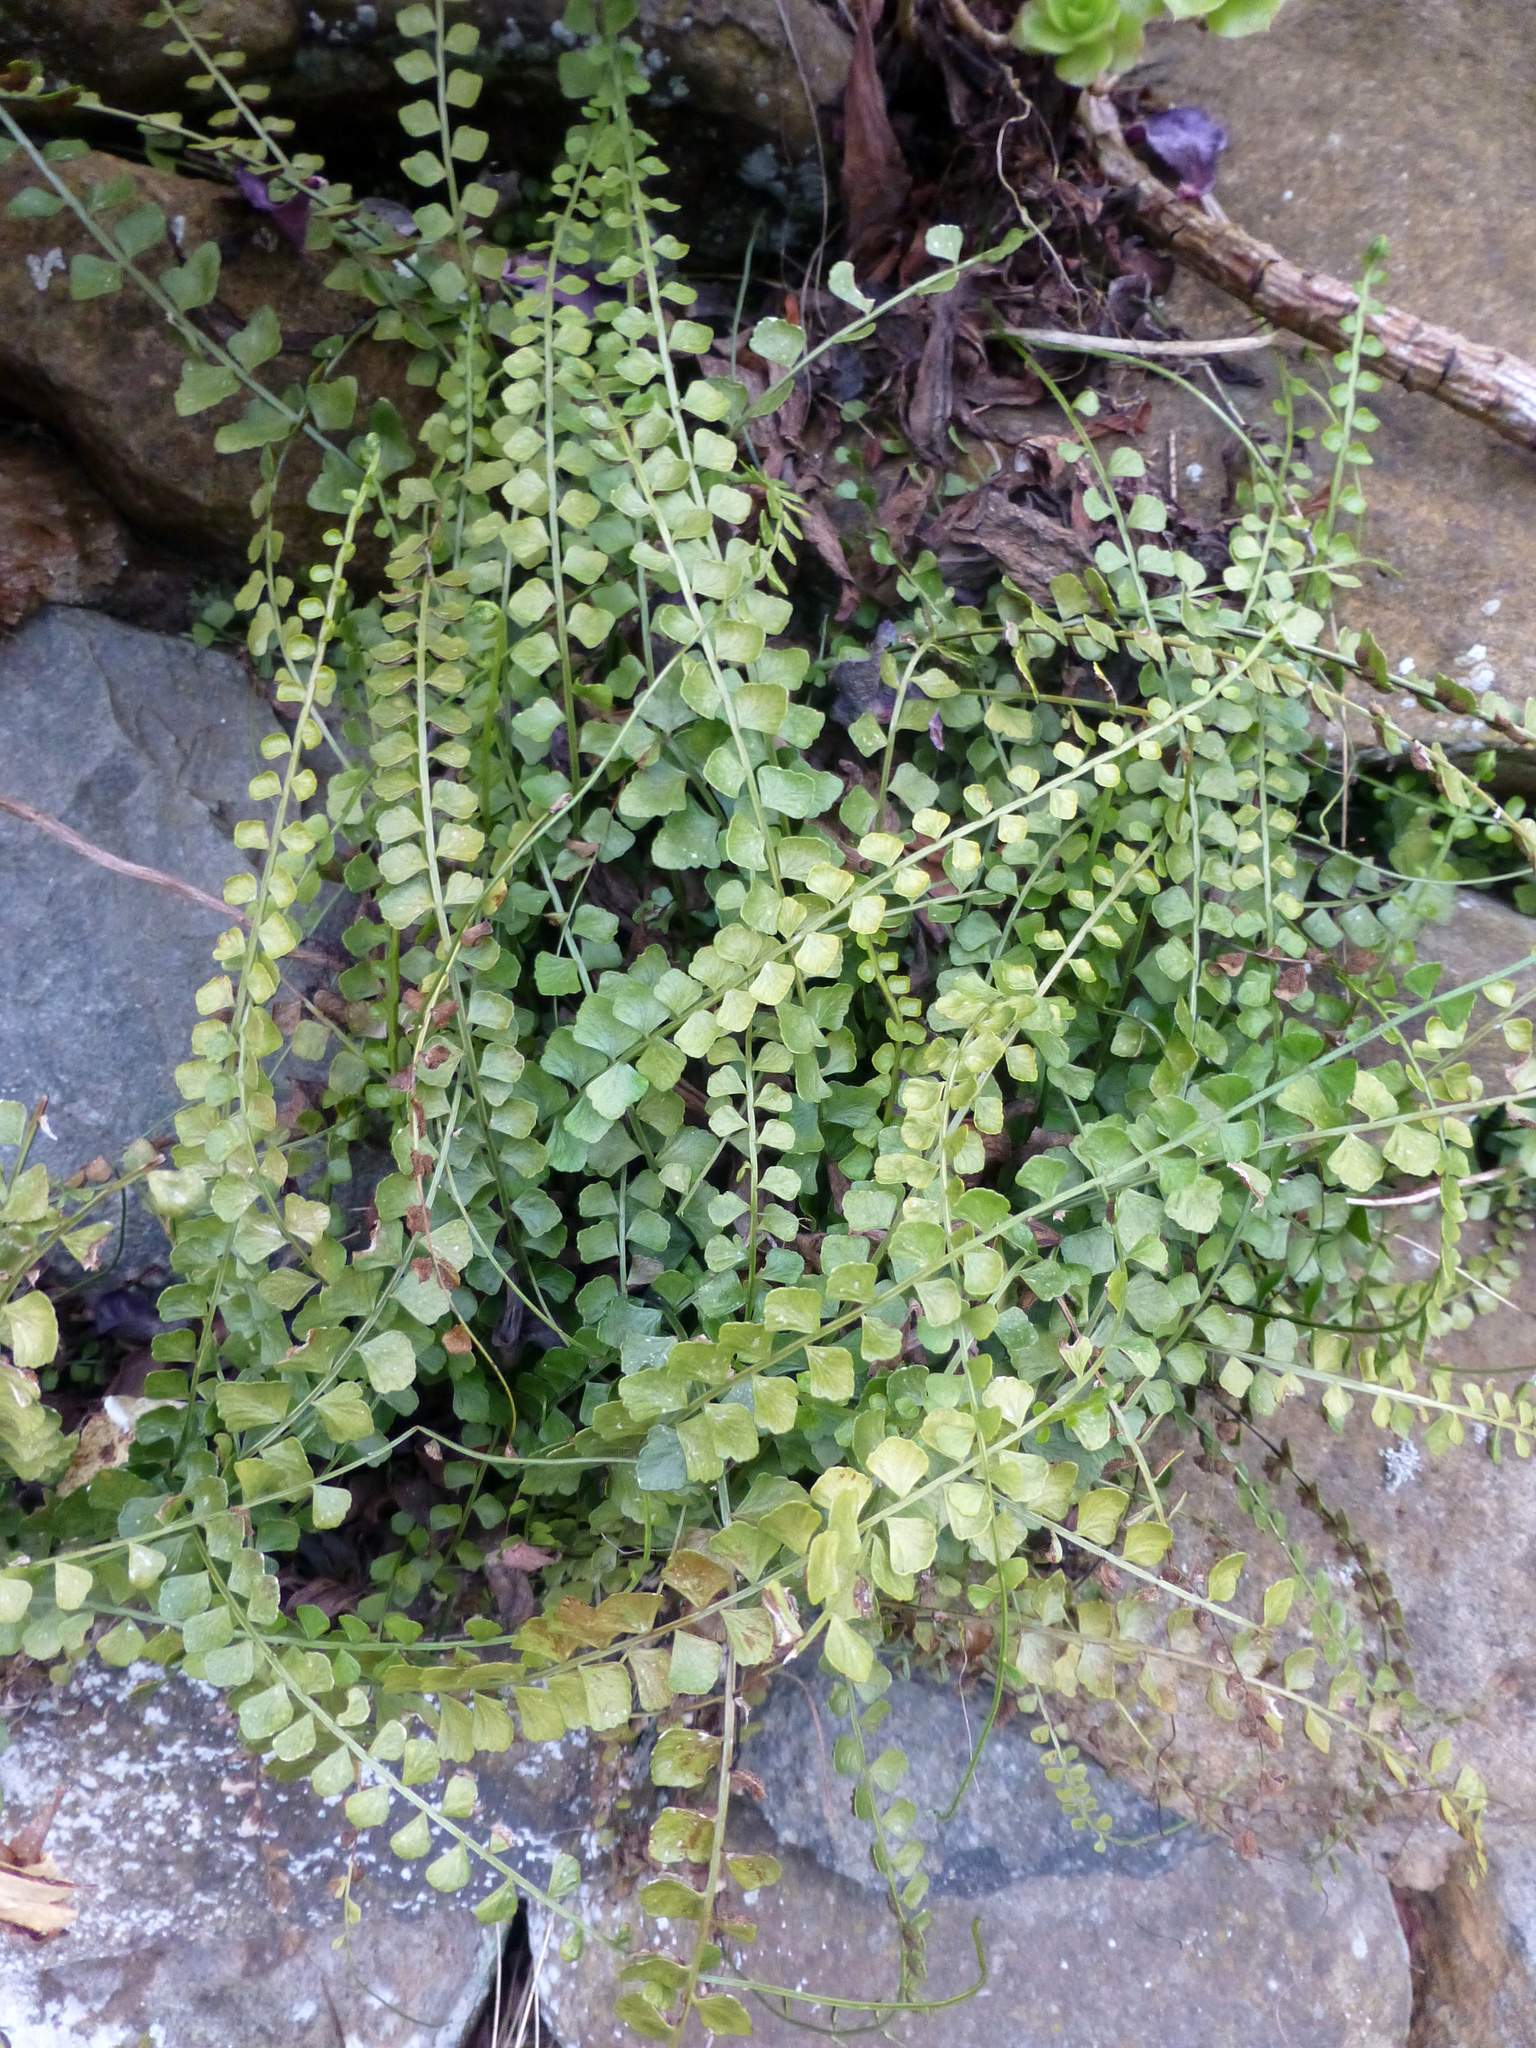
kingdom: Plantae
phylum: Tracheophyta
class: Polypodiopsida
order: Polypodiales
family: Aspleniaceae
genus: Asplenium
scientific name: Asplenium flabellifolium
